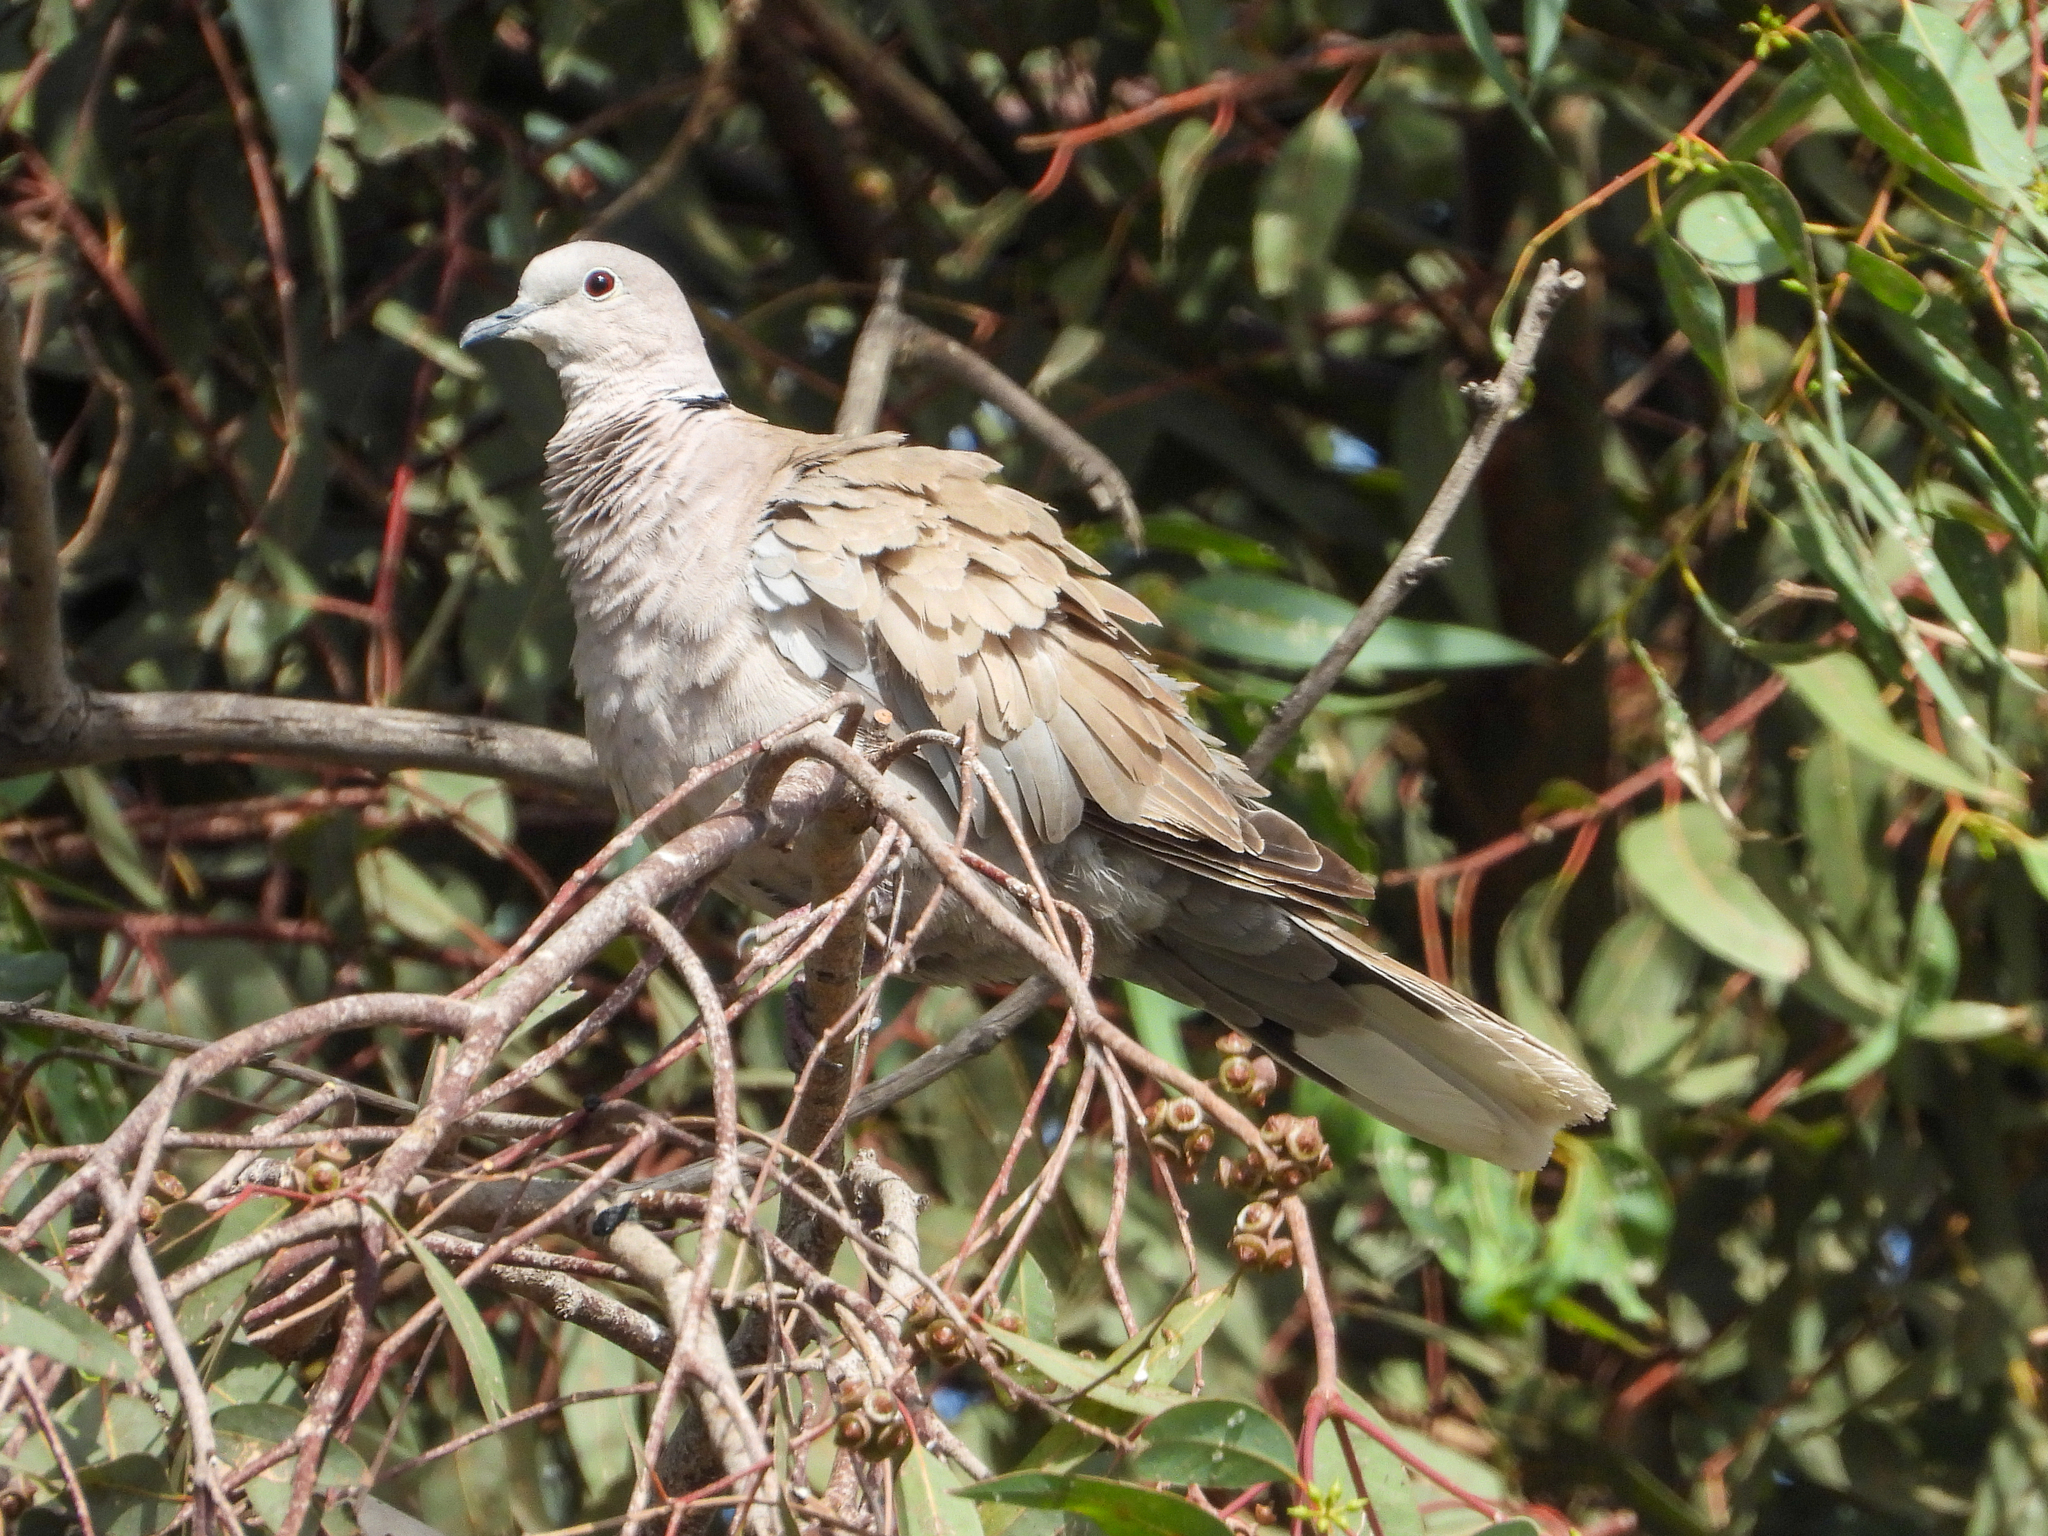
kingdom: Animalia
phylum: Chordata
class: Aves
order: Columbiformes
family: Columbidae
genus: Streptopelia
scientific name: Streptopelia decaocto
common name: Eurasian collared dove
